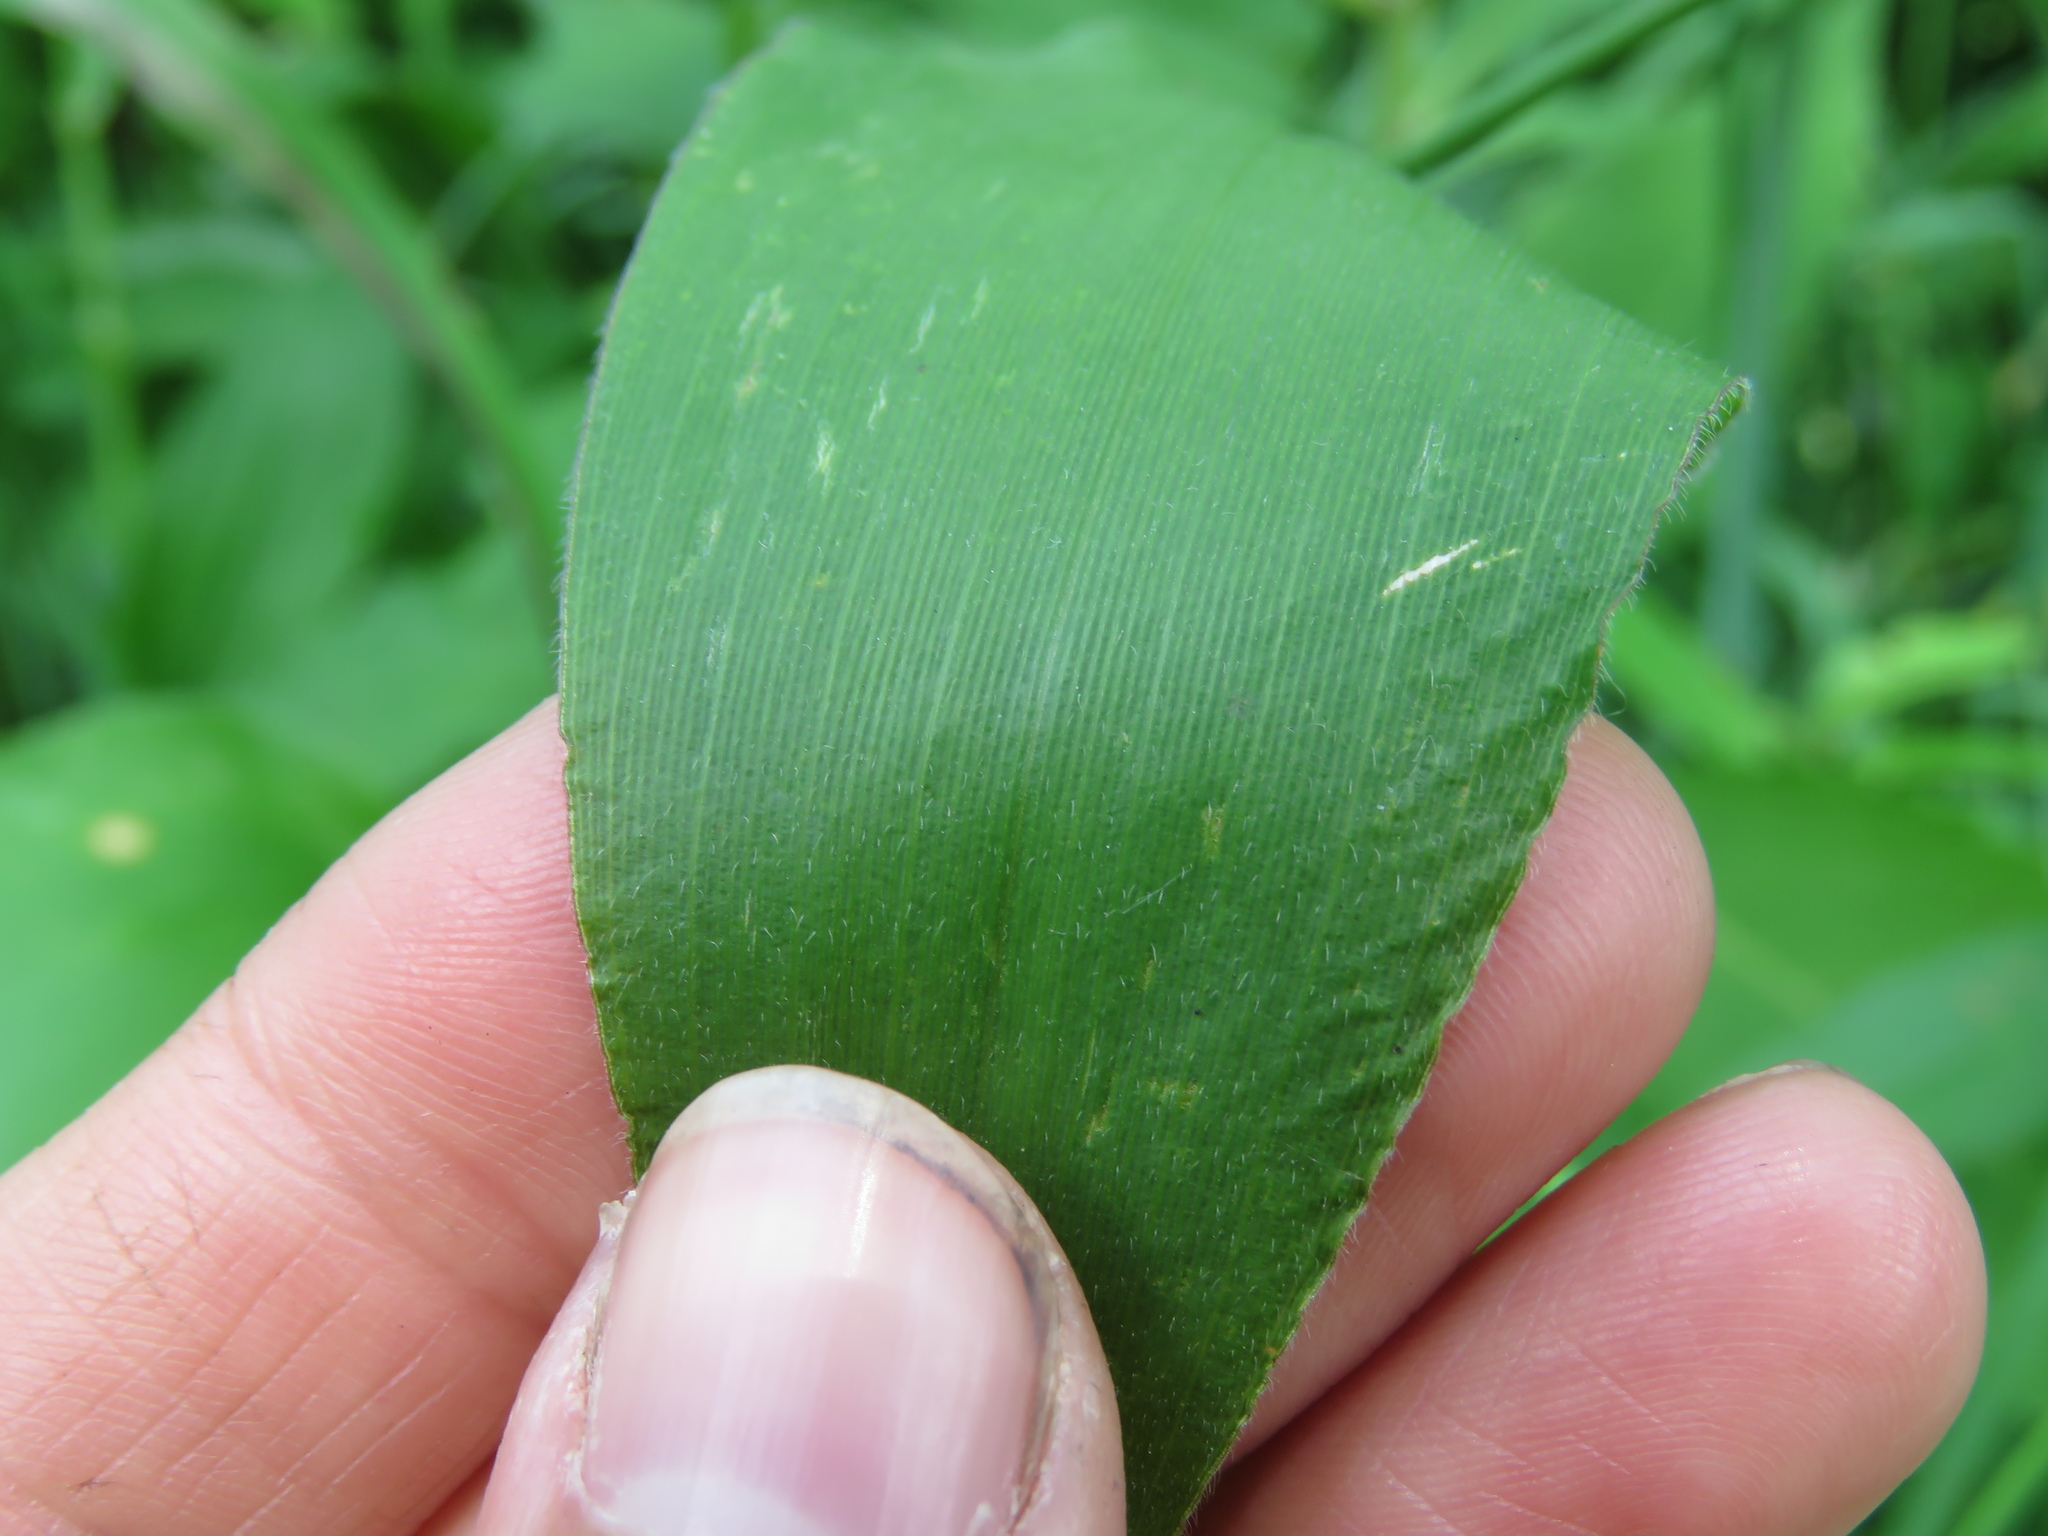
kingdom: Plantae
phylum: Tracheophyta
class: Liliopsida
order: Poales
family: Poaceae
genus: Dichanthelium
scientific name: Dichanthelium latifolium
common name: Broad-leaved panicgrass
